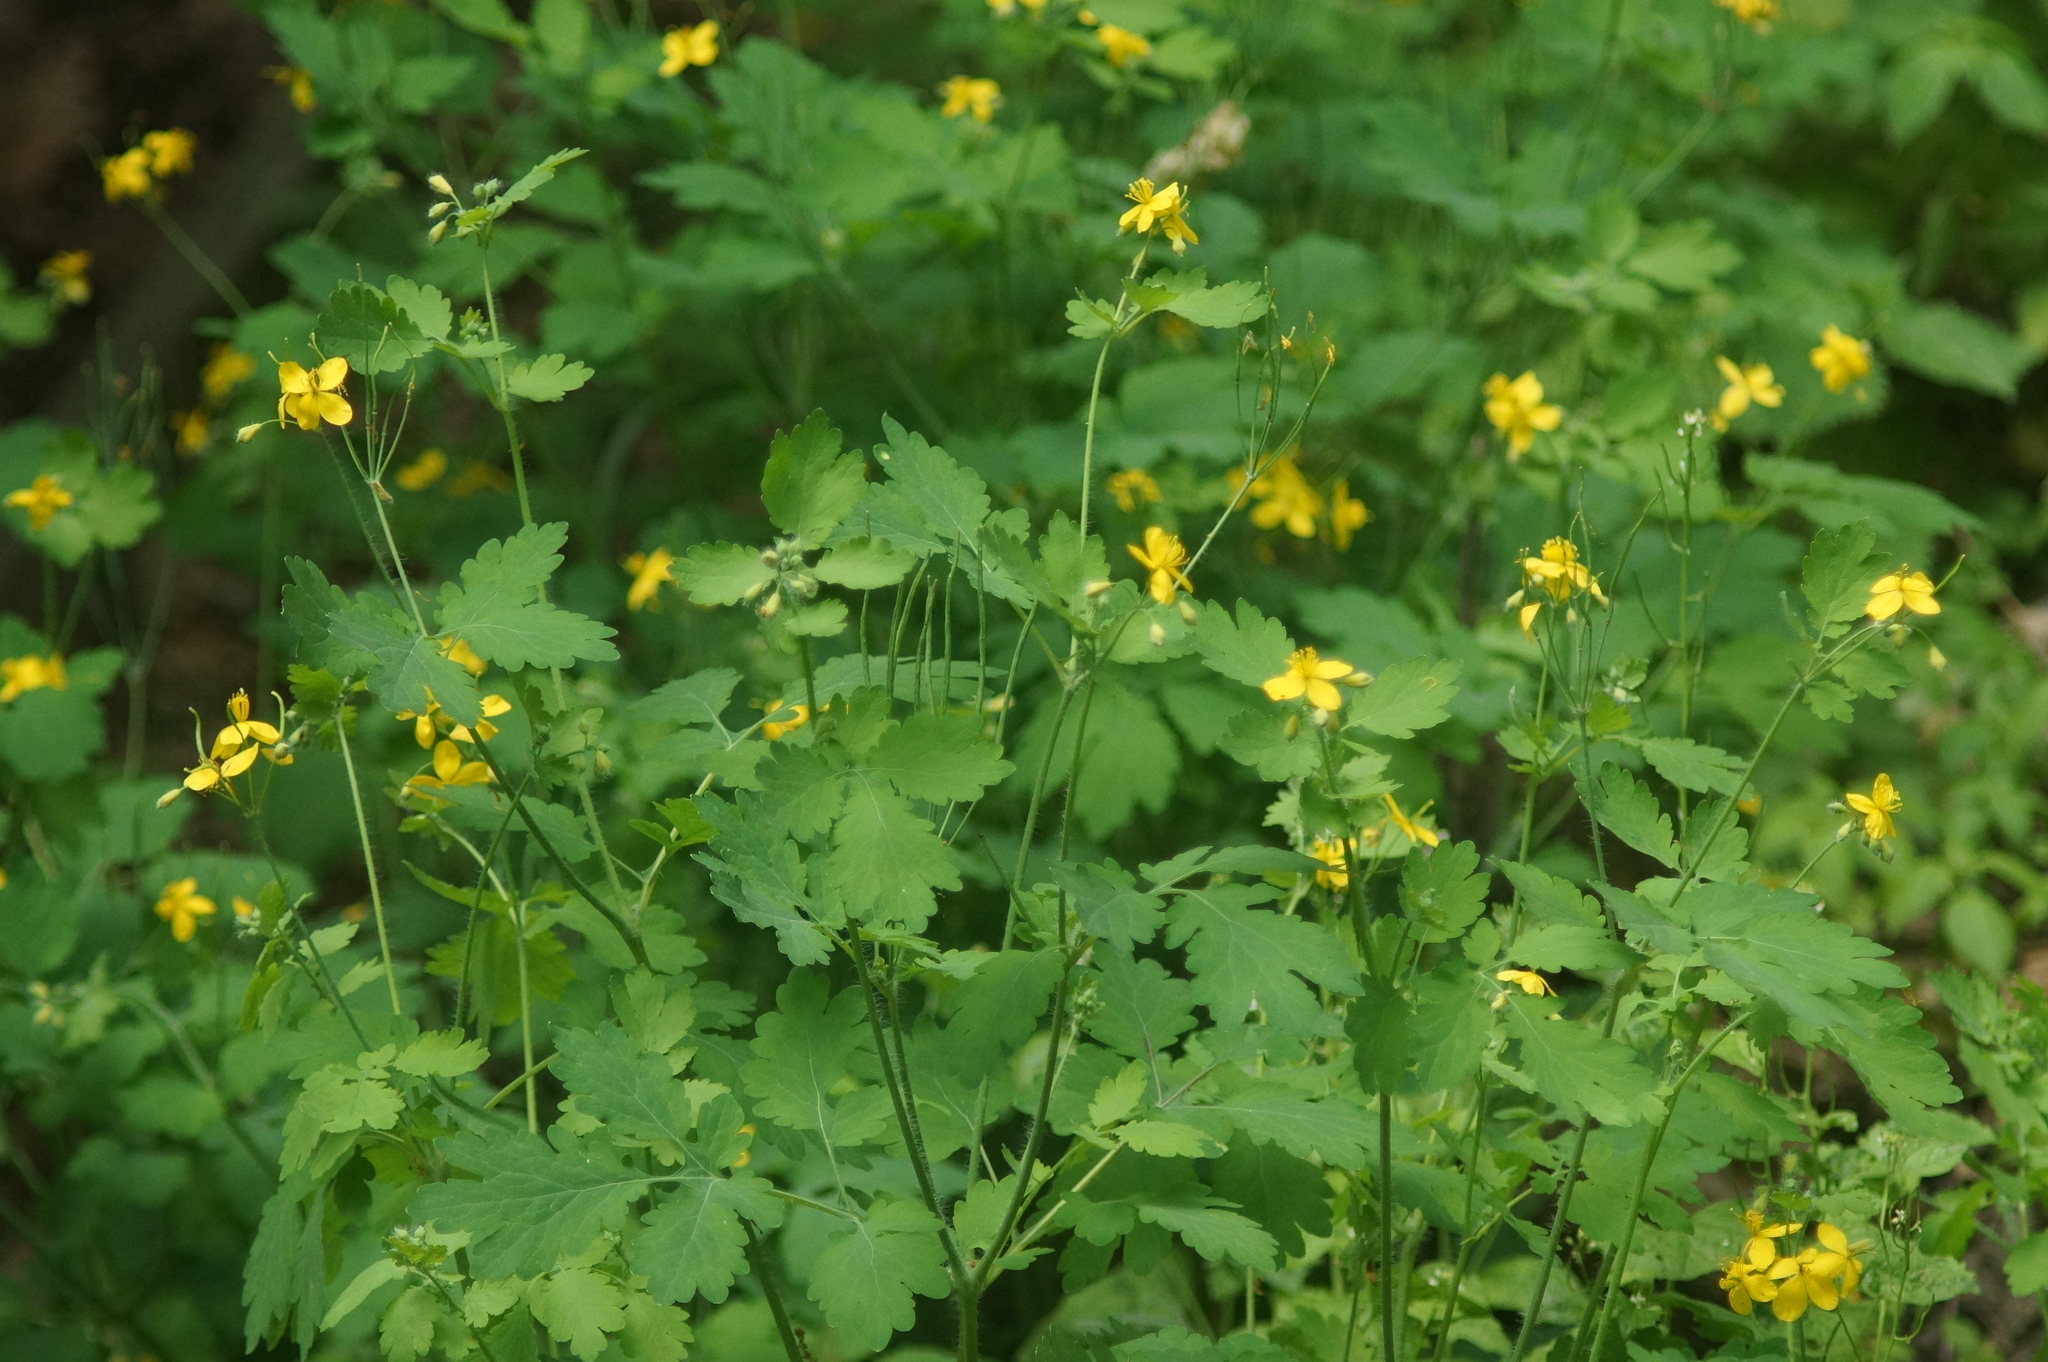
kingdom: Plantae
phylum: Tracheophyta
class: Magnoliopsida
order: Ranunculales
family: Papaveraceae
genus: Chelidonium
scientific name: Chelidonium majus
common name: Greater celandine
